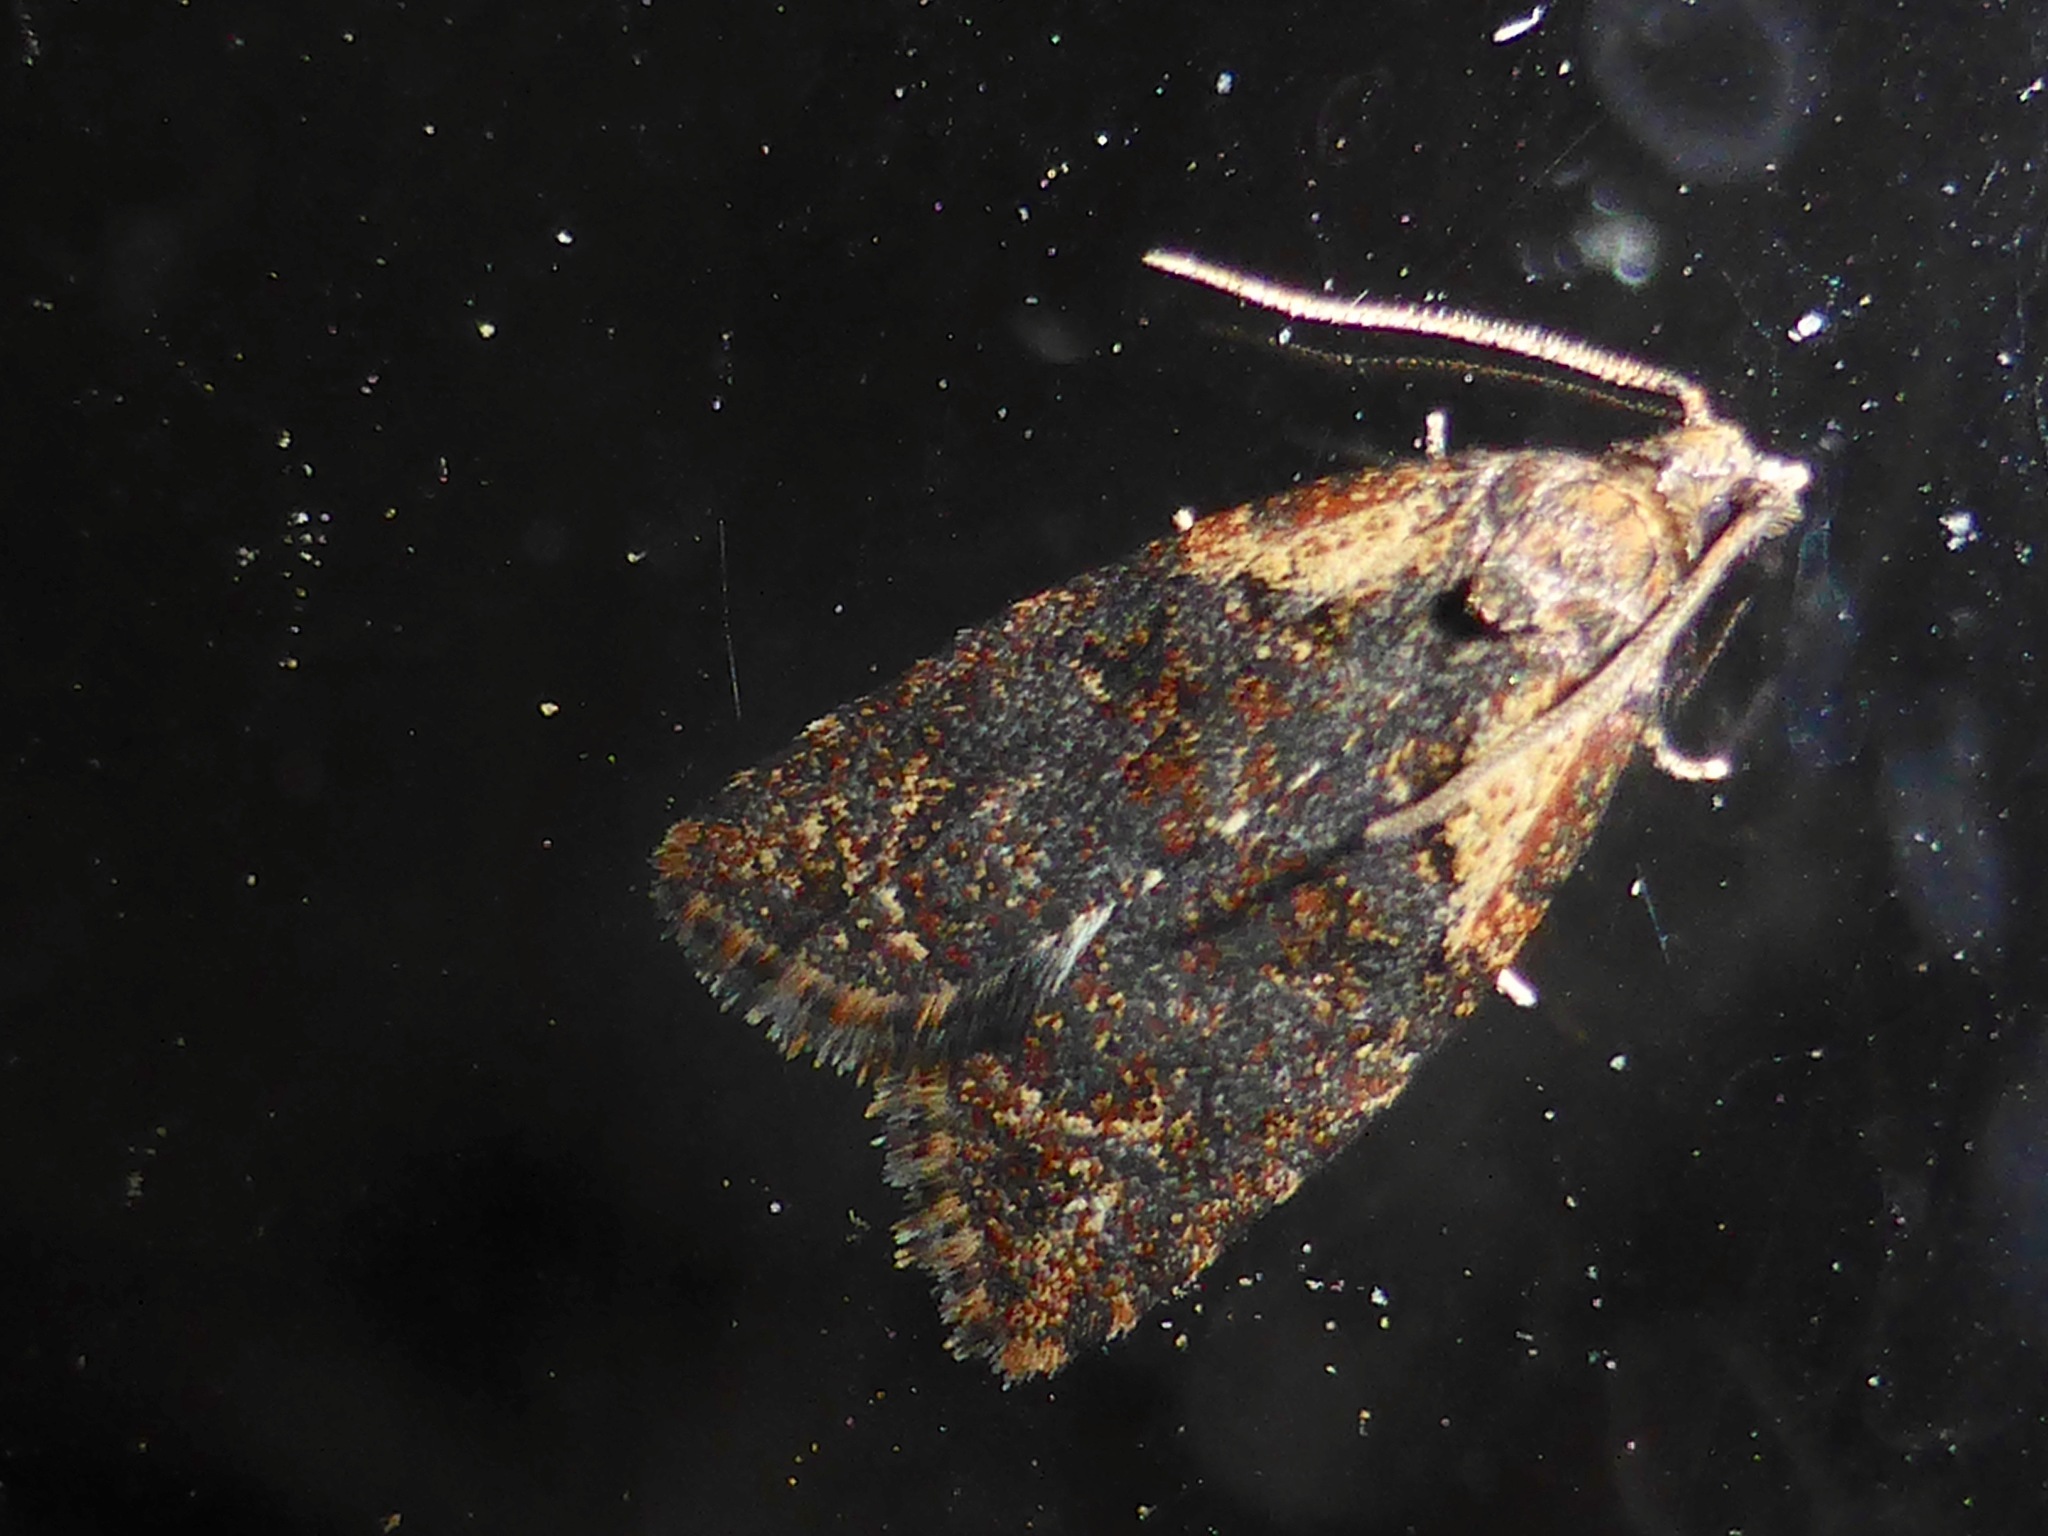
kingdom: Animalia
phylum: Arthropoda
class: Insecta
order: Lepidoptera
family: Tortricidae
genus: Capua
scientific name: Capua intractana
